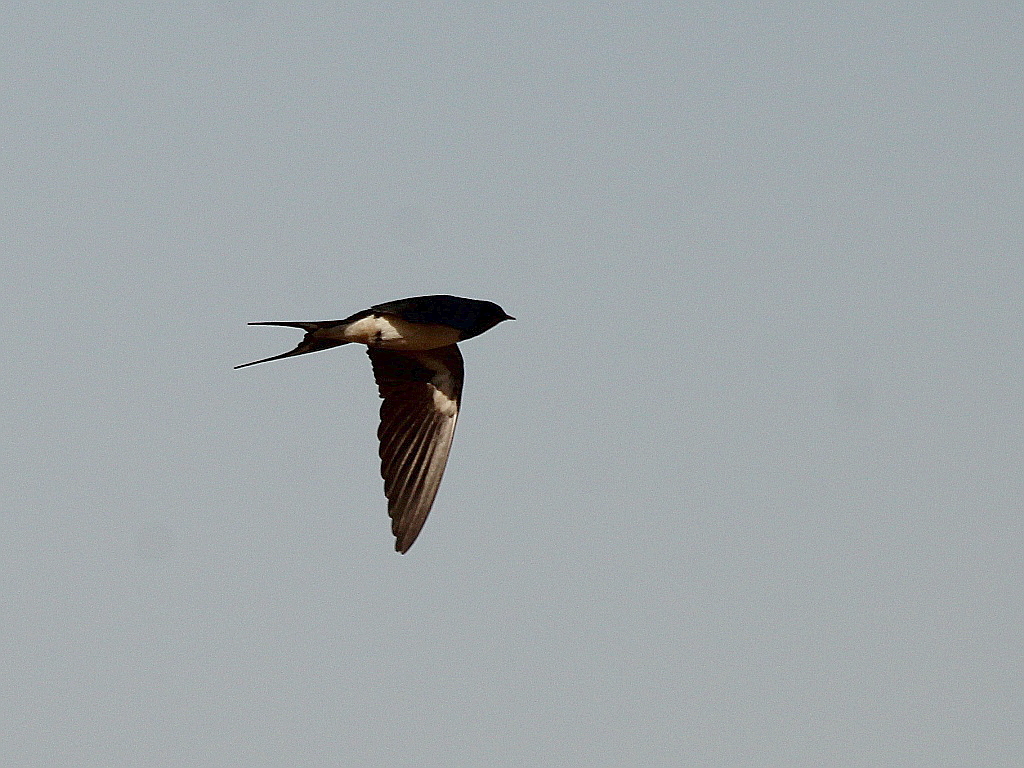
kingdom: Animalia
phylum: Chordata
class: Aves
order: Passeriformes
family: Hirundinidae
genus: Hirundo
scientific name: Hirundo rustica
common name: Barn swallow
